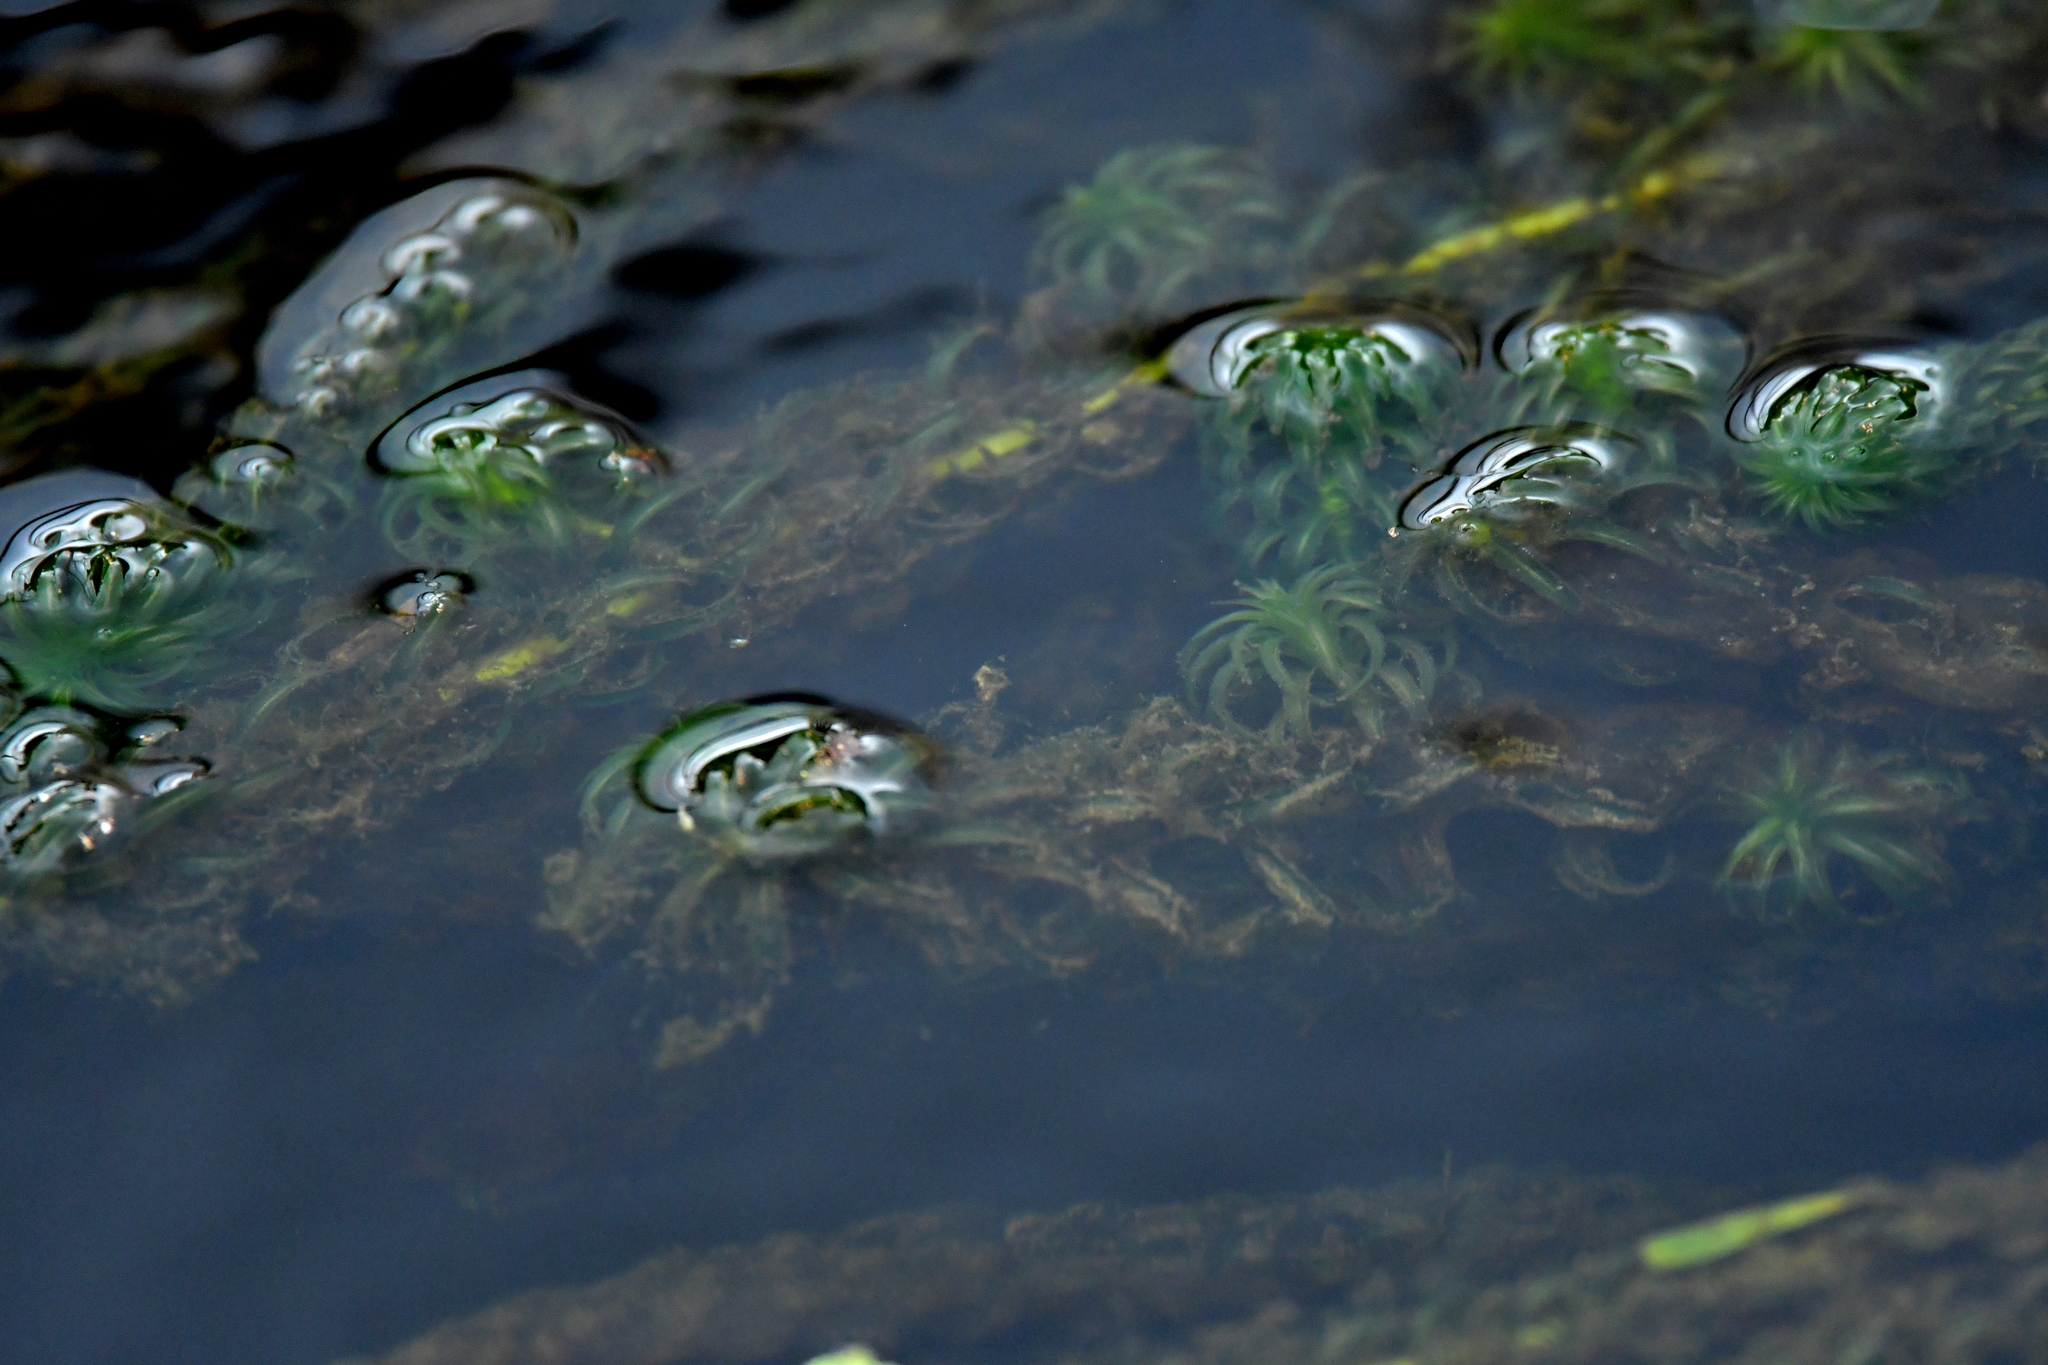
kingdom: Plantae
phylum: Tracheophyta
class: Liliopsida
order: Alismatales
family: Hydrocharitaceae
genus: Lagarosiphon
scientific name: Lagarosiphon major
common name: Curly waterweed
